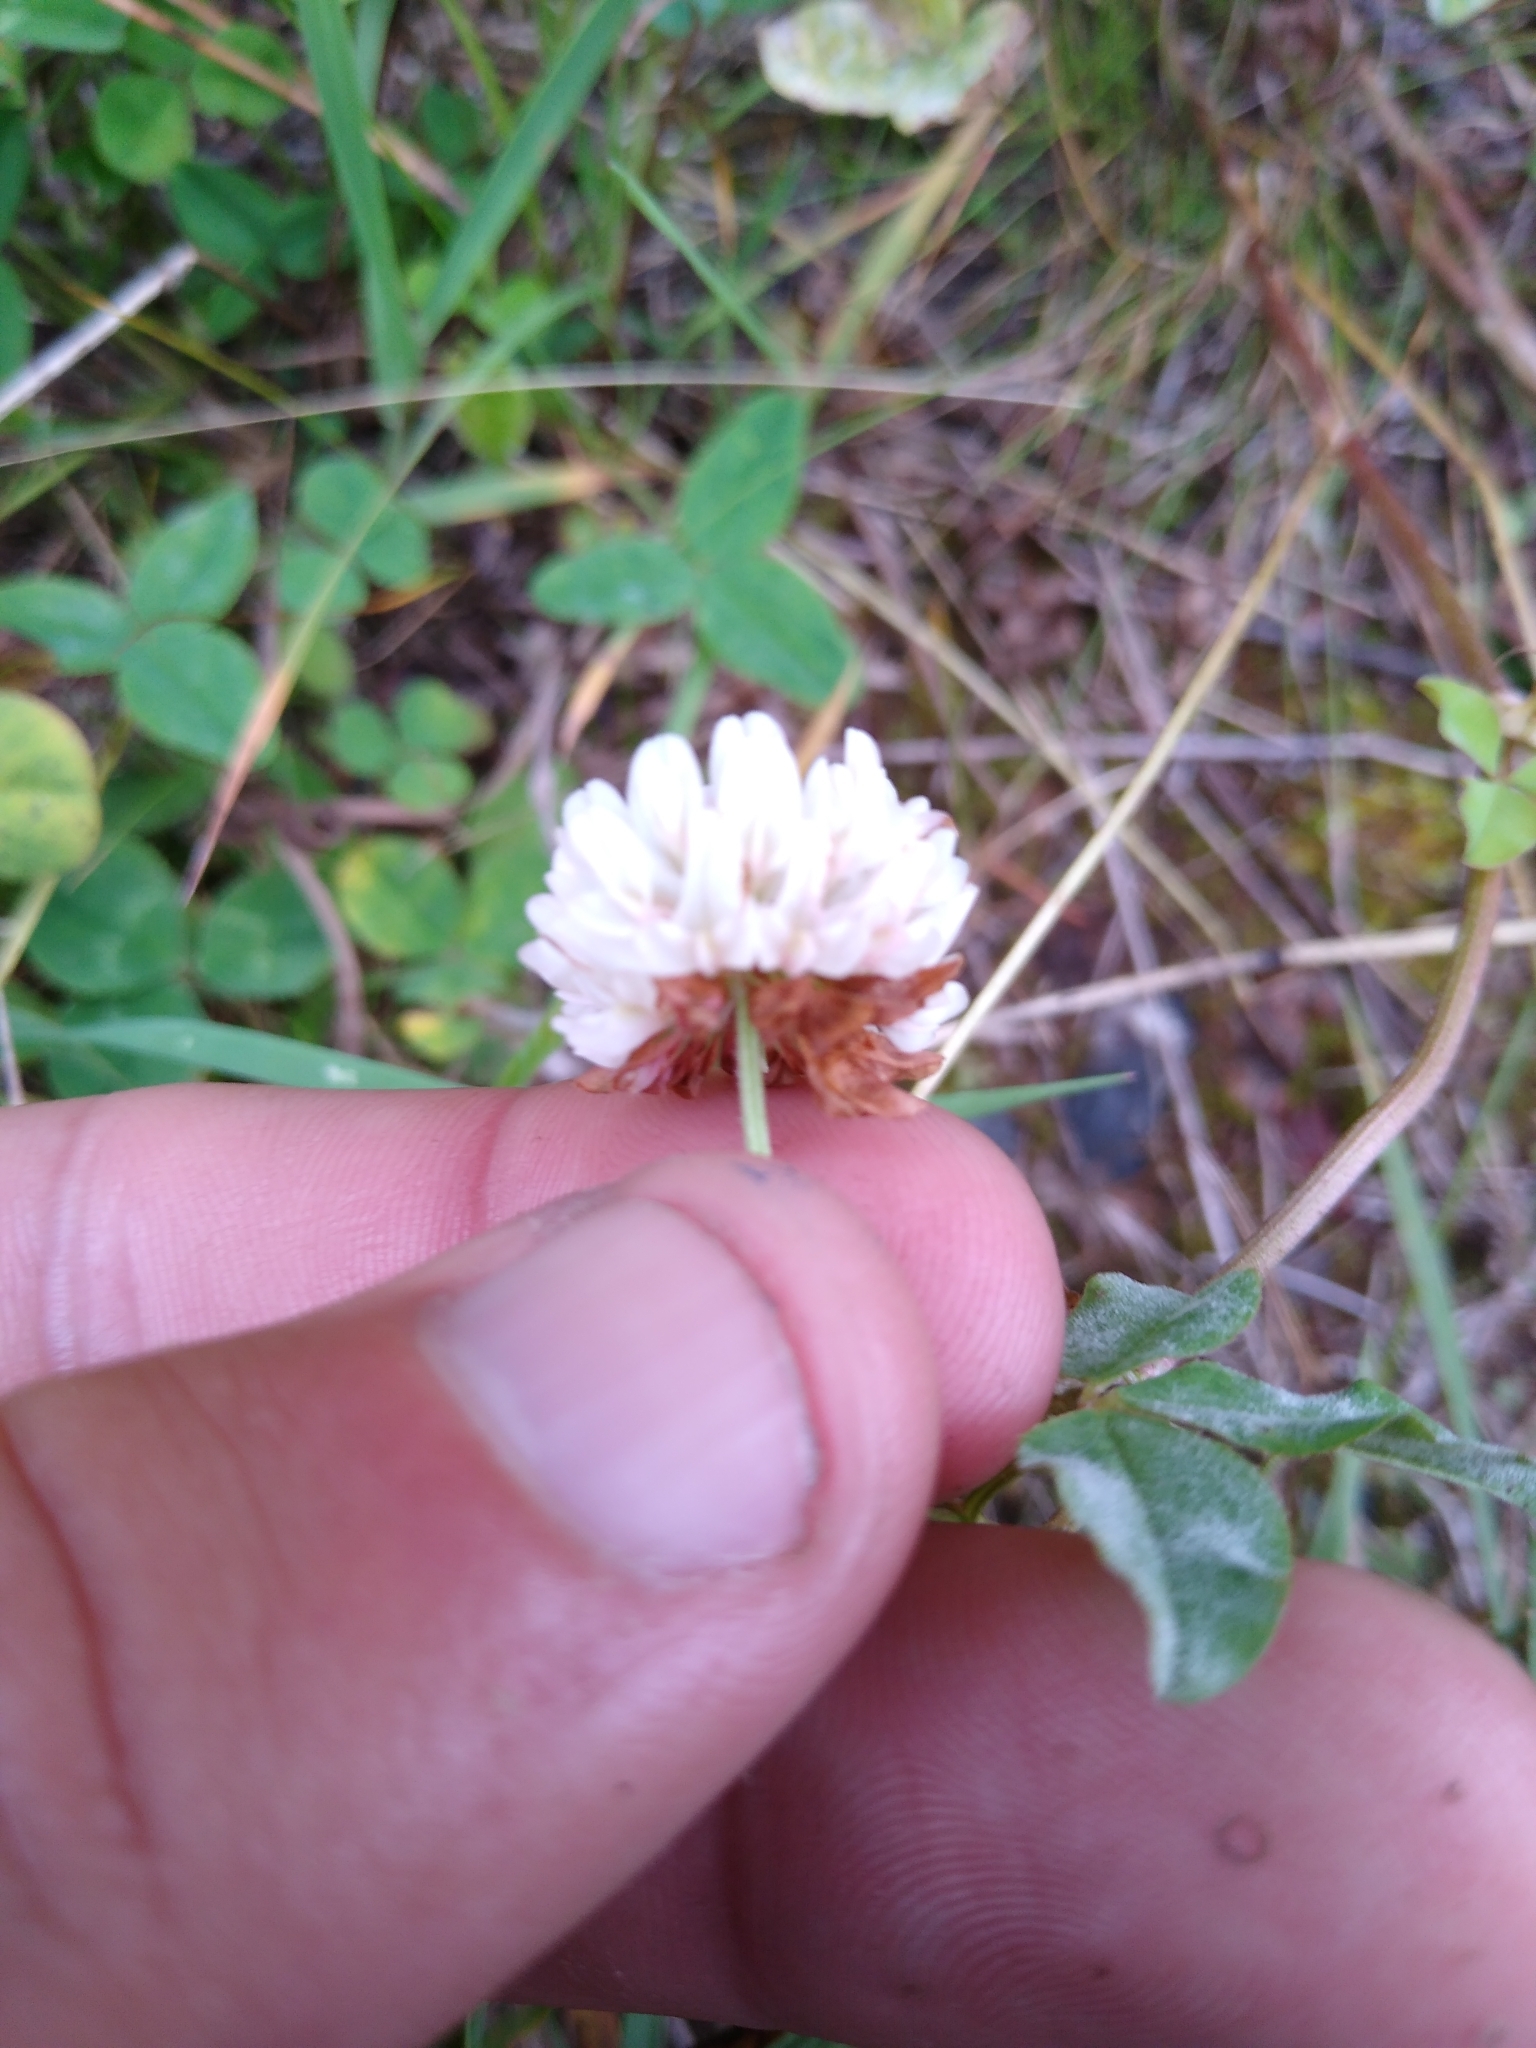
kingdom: Plantae
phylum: Tracheophyta
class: Magnoliopsida
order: Fabales
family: Fabaceae
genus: Trifolium
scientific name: Trifolium repens
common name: White clover
